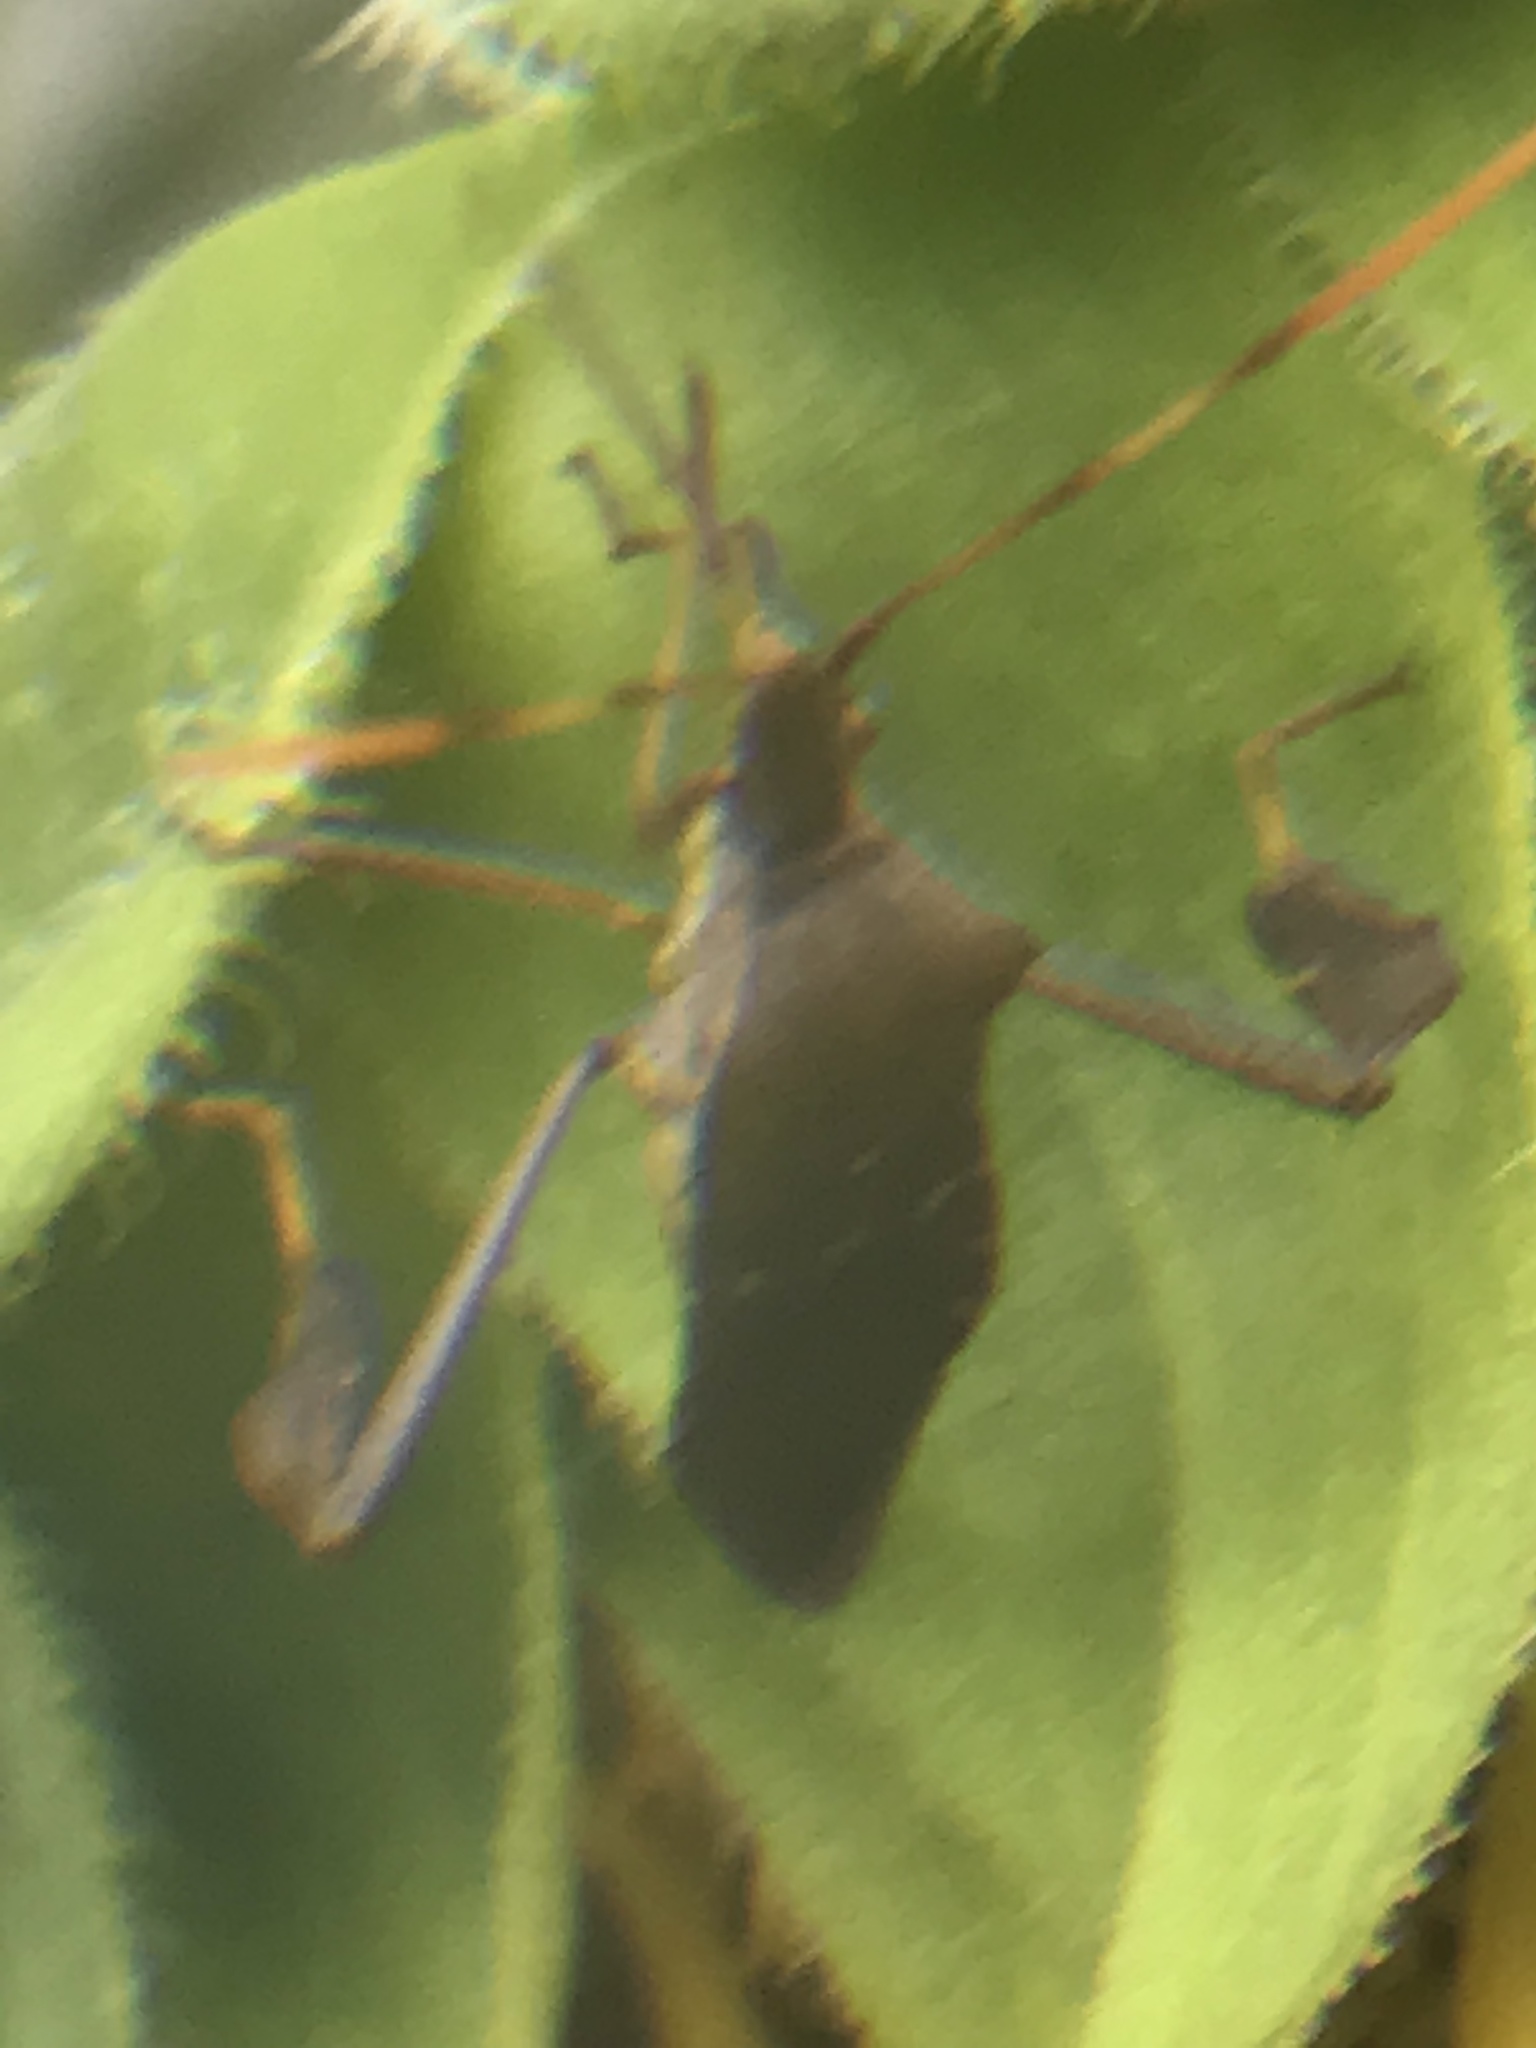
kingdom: Animalia
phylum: Arthropoda
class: Insecta
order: Hemiptera
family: Coreidae
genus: Leptoglossus
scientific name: Leptoglossus oppositus
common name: Northern leaf-footed bug
